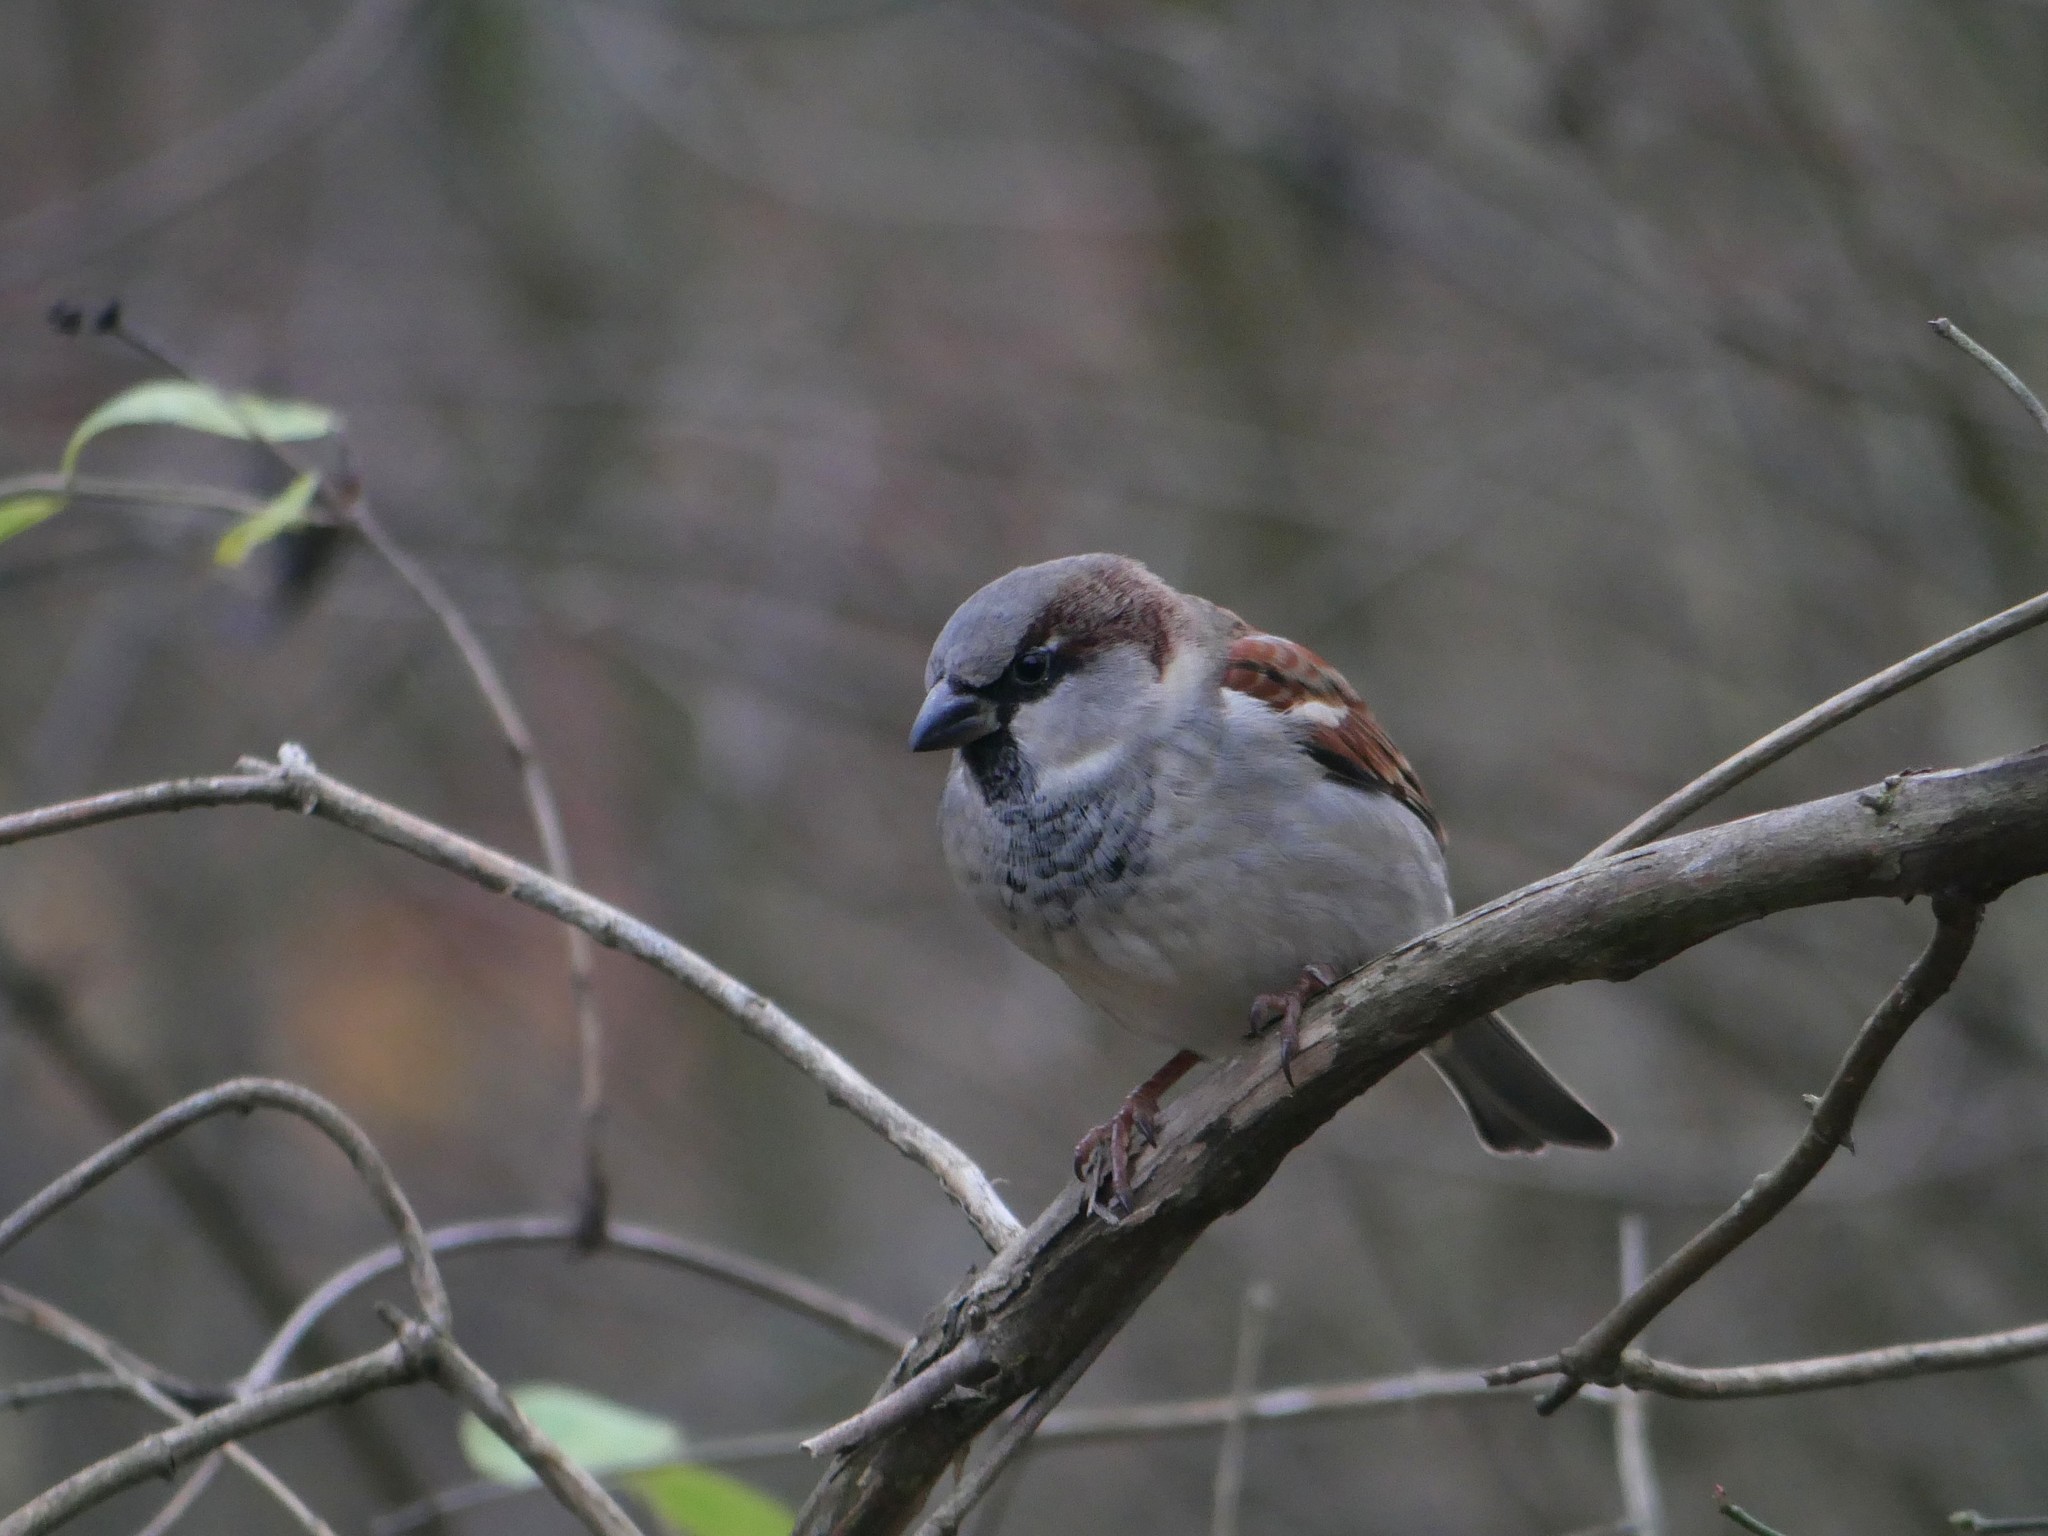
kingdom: Animalia
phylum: Chordata
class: Aves
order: Passeriformes
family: Passeridae
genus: Passer
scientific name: Passer domesticus
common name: House sparrow
